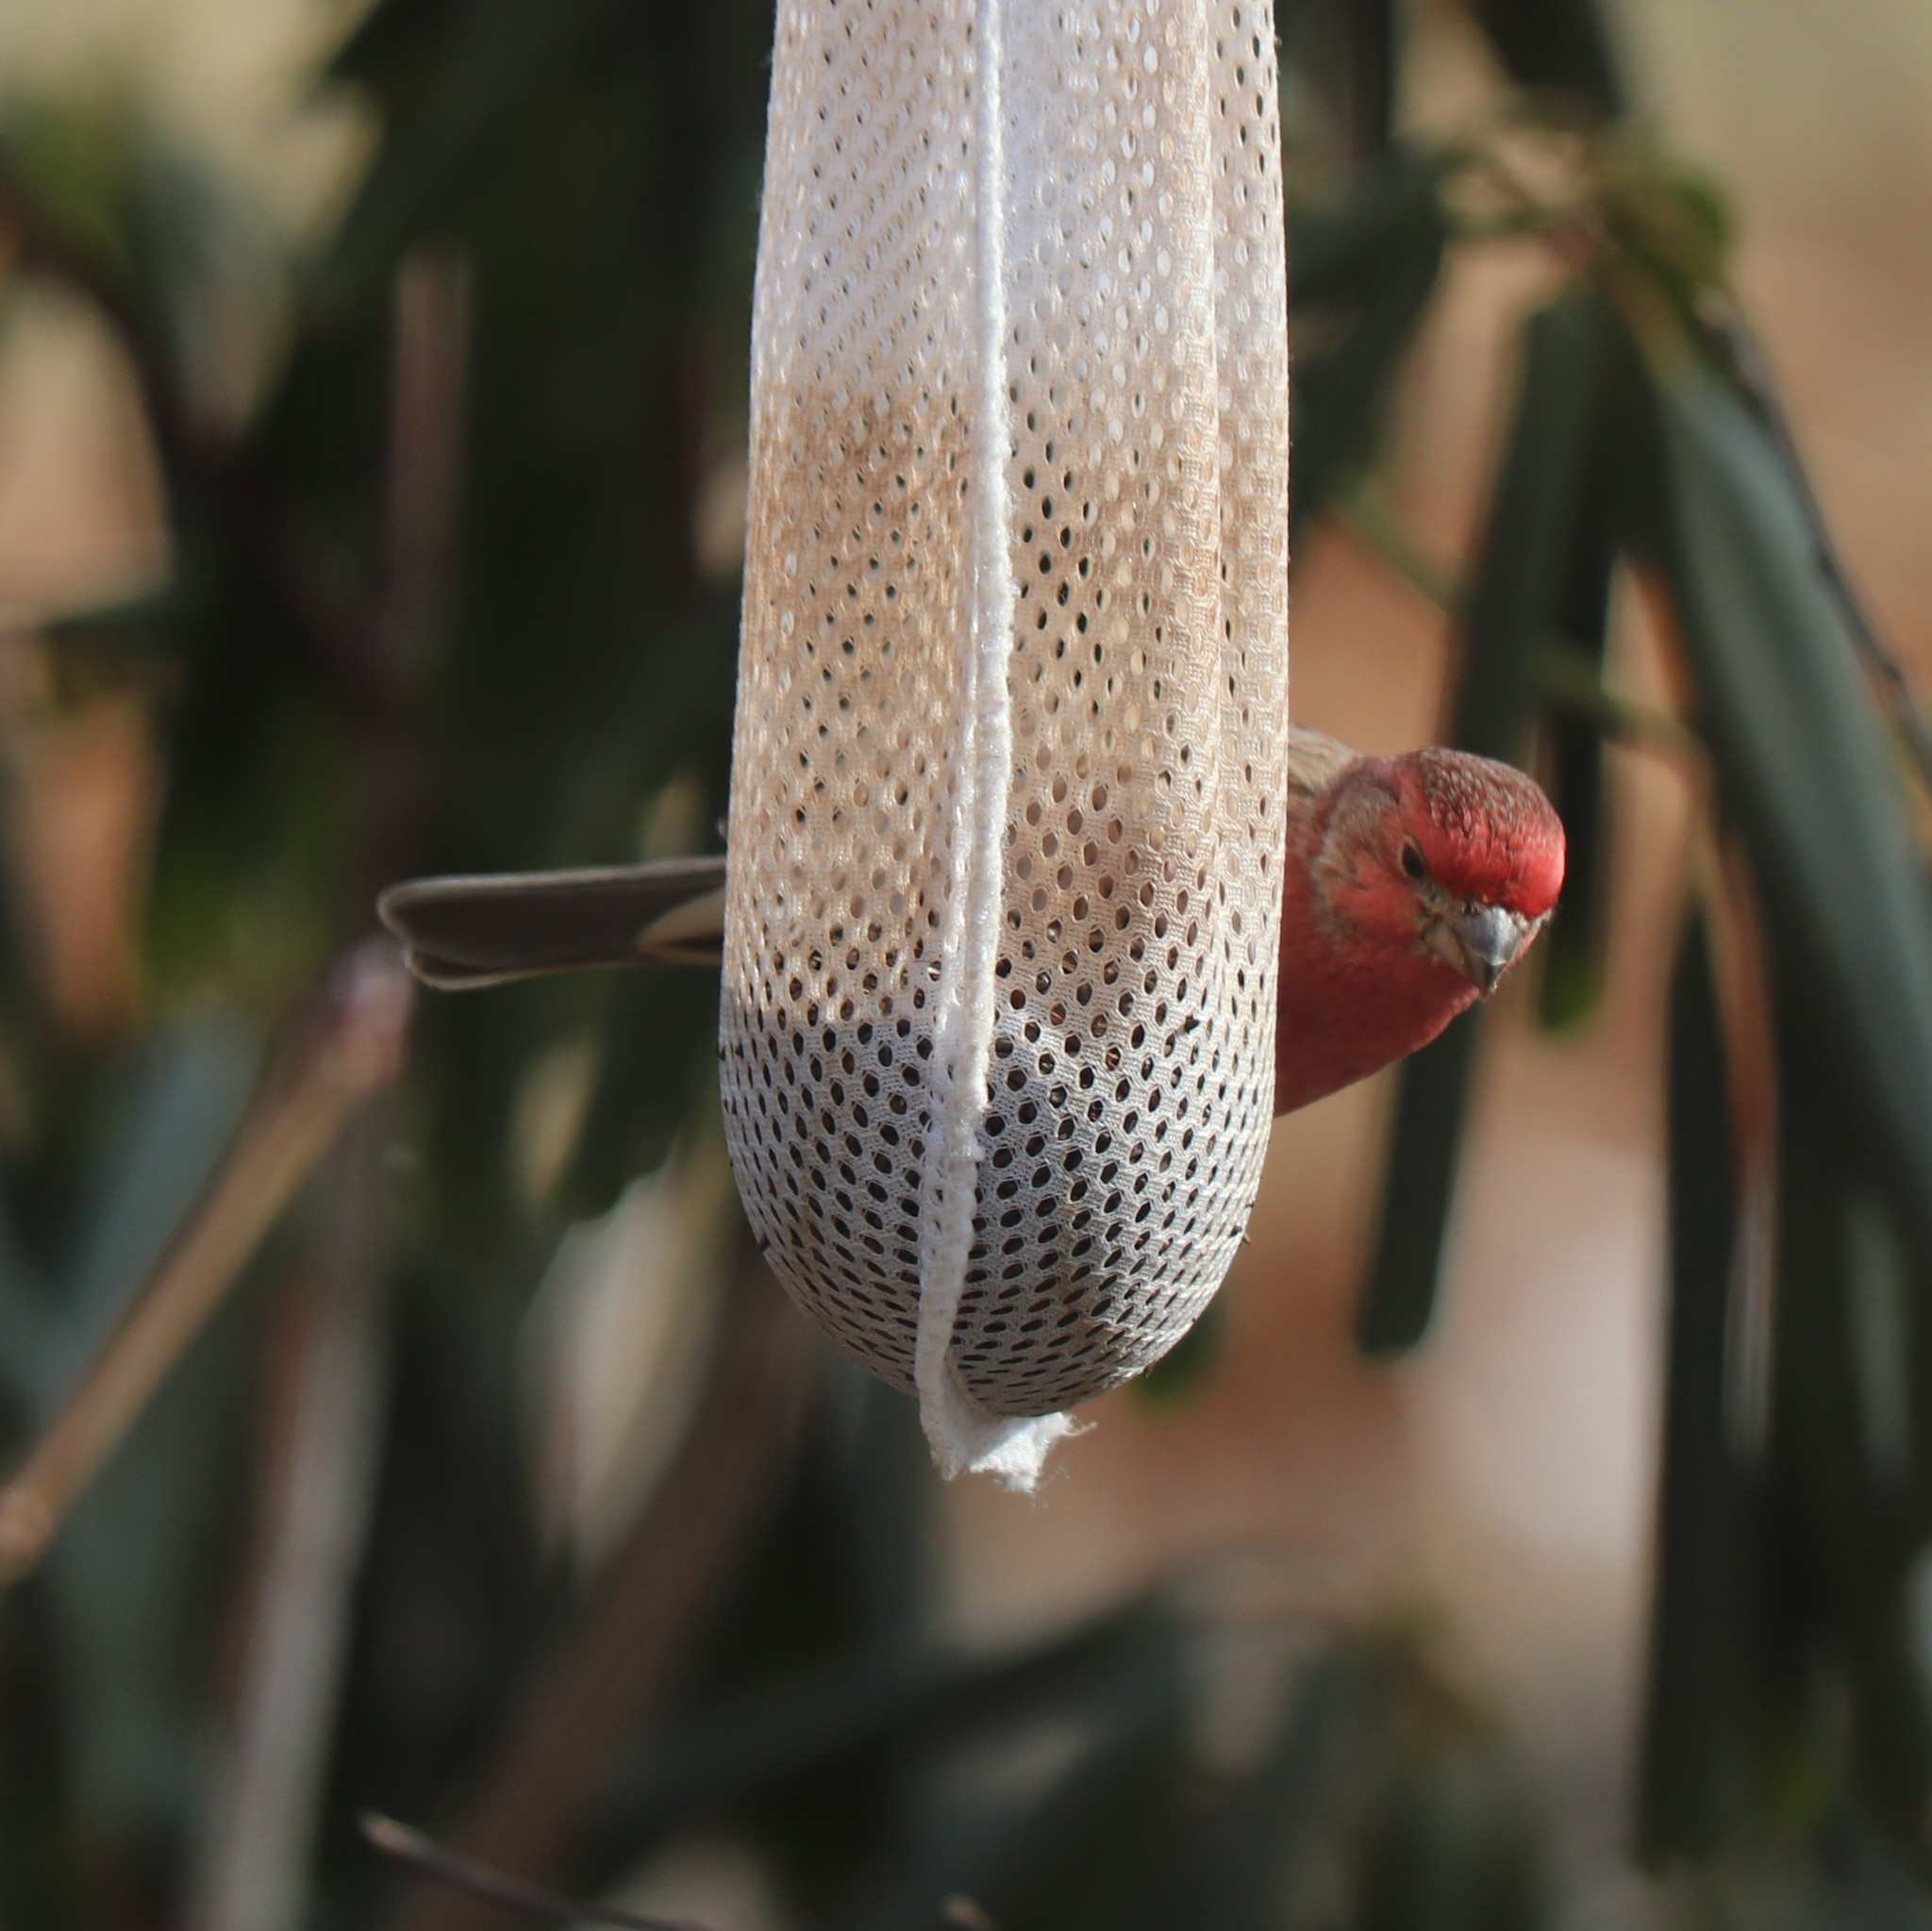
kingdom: Animalia
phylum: Chordata
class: Aves
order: Passeriformes
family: Fringillidae
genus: Haemorhous
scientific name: Haemorhous mexicanus
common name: House finch
